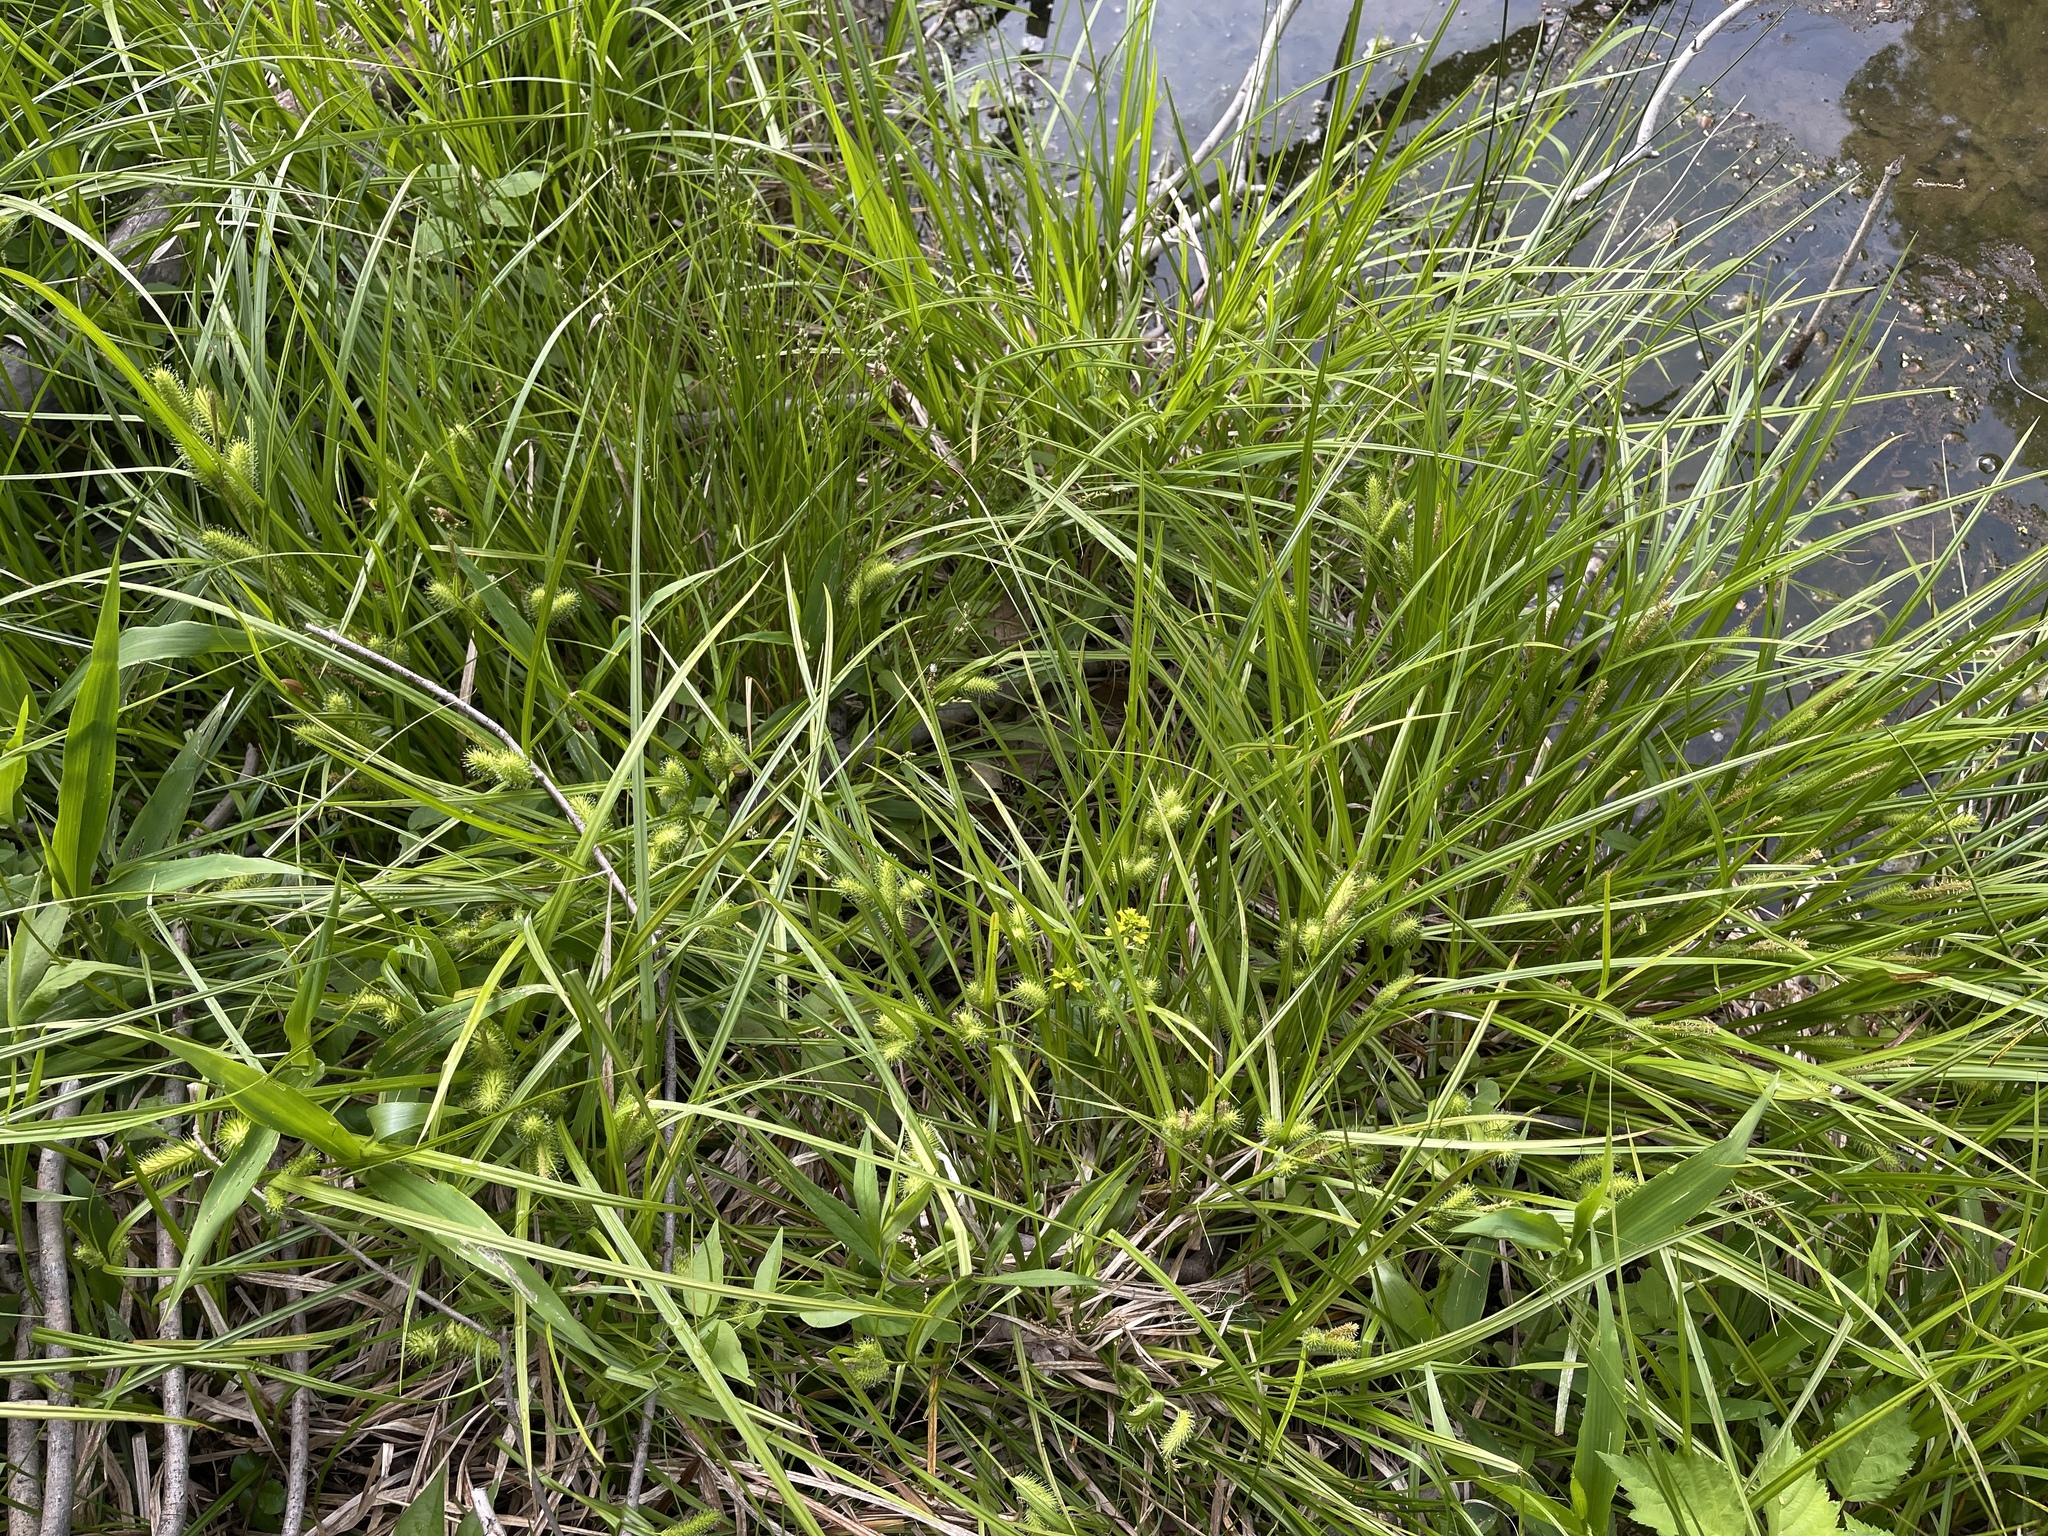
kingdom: Plantae
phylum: Tracheophyta
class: Liliopsida
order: Poales
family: Cyperaceae
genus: Carex
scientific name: Carex lurida
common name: Sallow sedge
